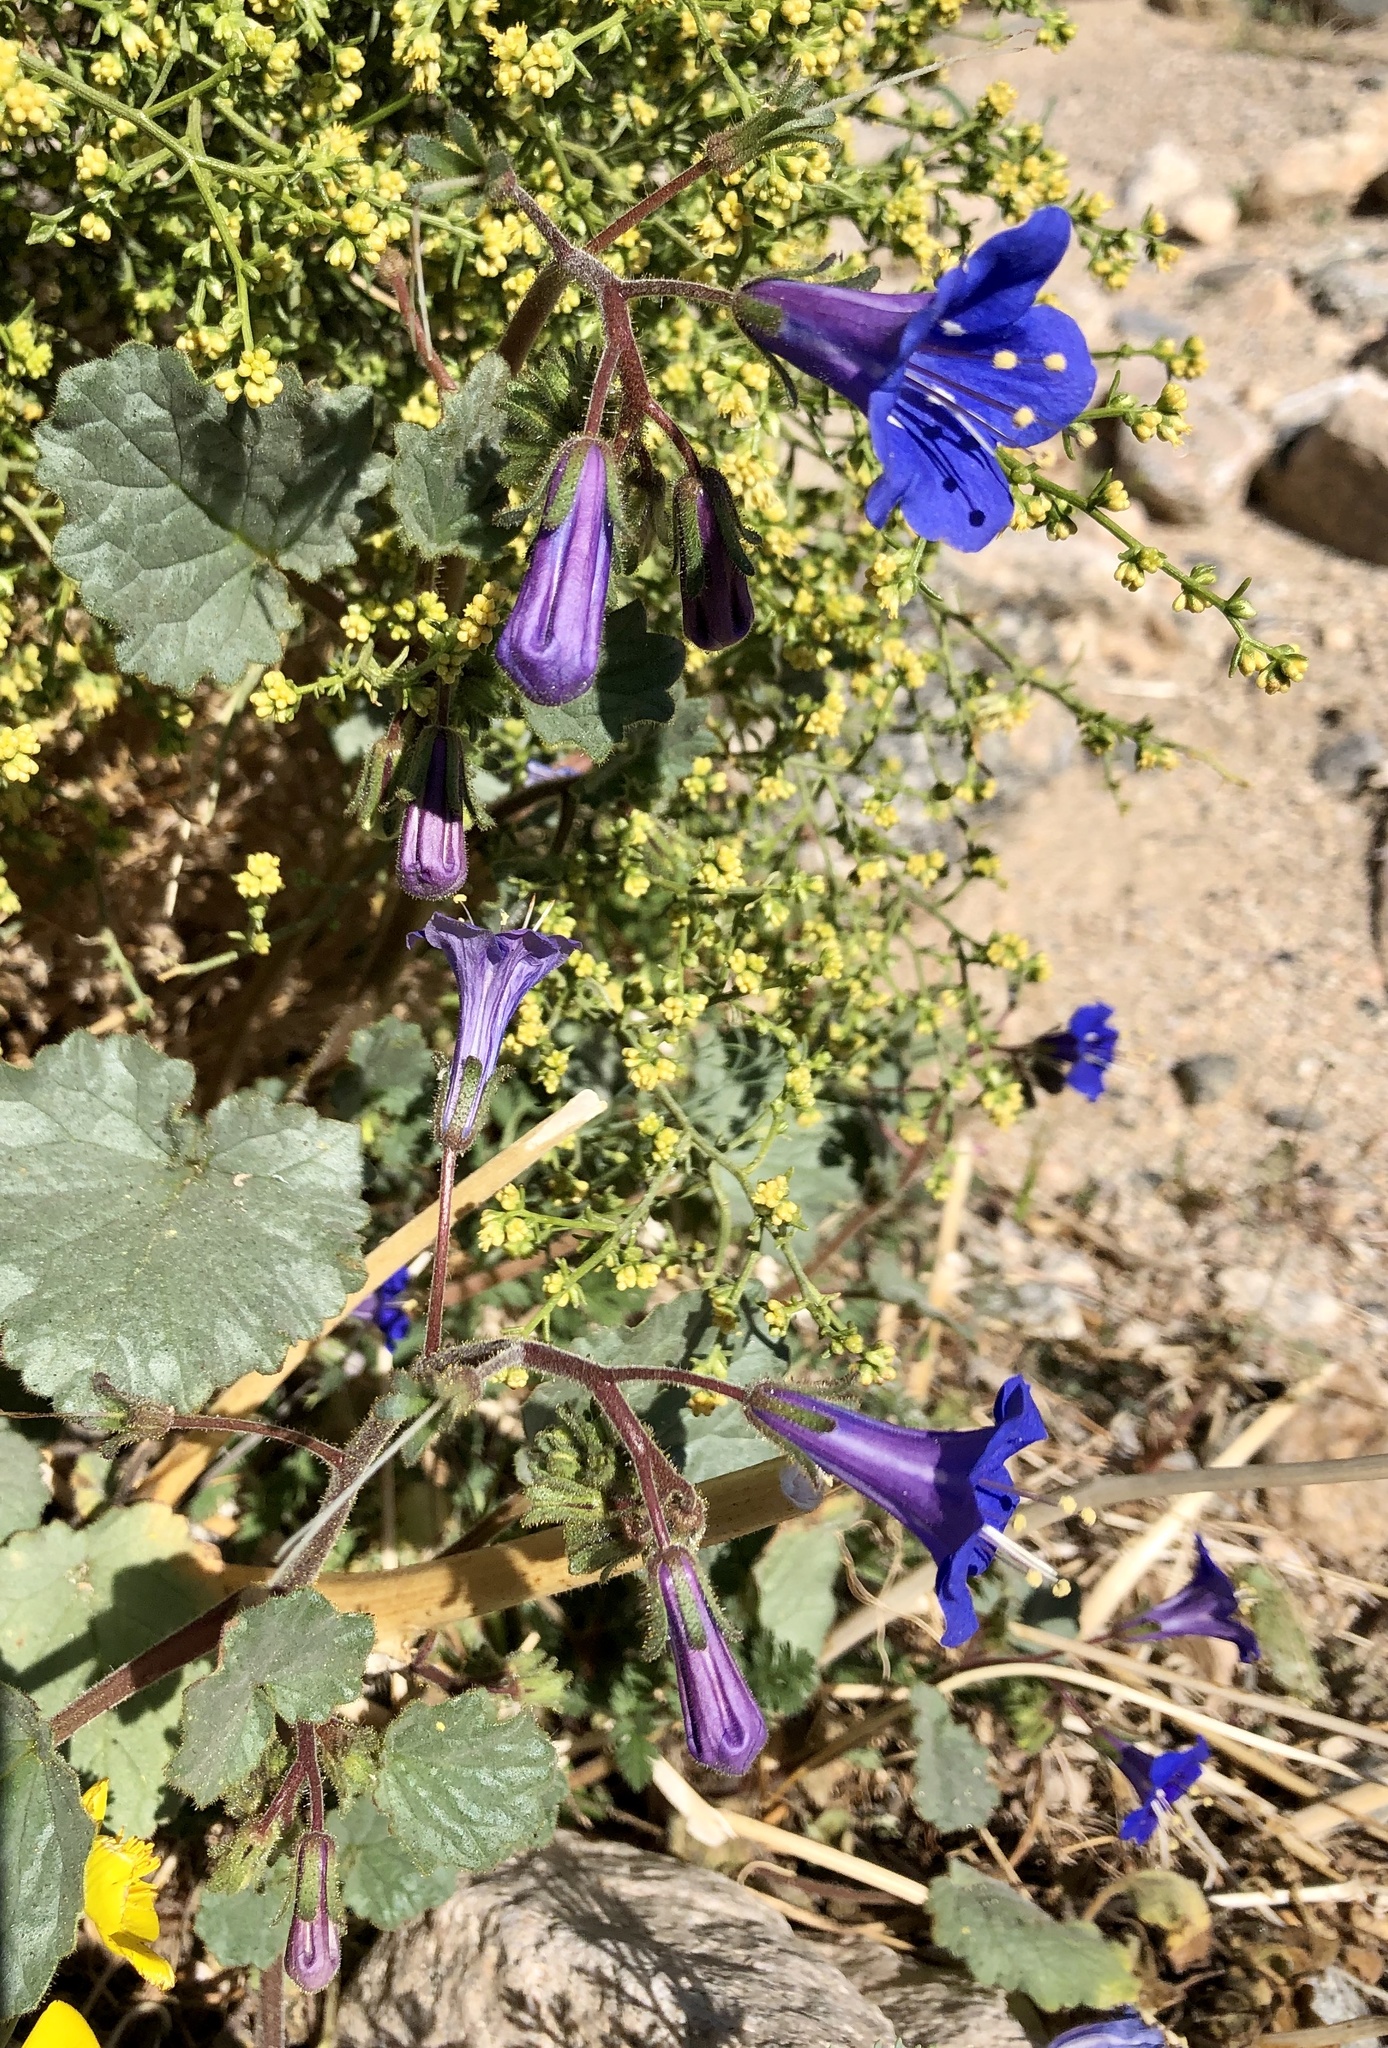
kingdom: Plantae
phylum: Tracheophyta
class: Magnoliopsida
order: Boraginales
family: Hydrophyllaceae
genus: Phacelia
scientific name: Phacelia campanularia
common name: California bluebell
